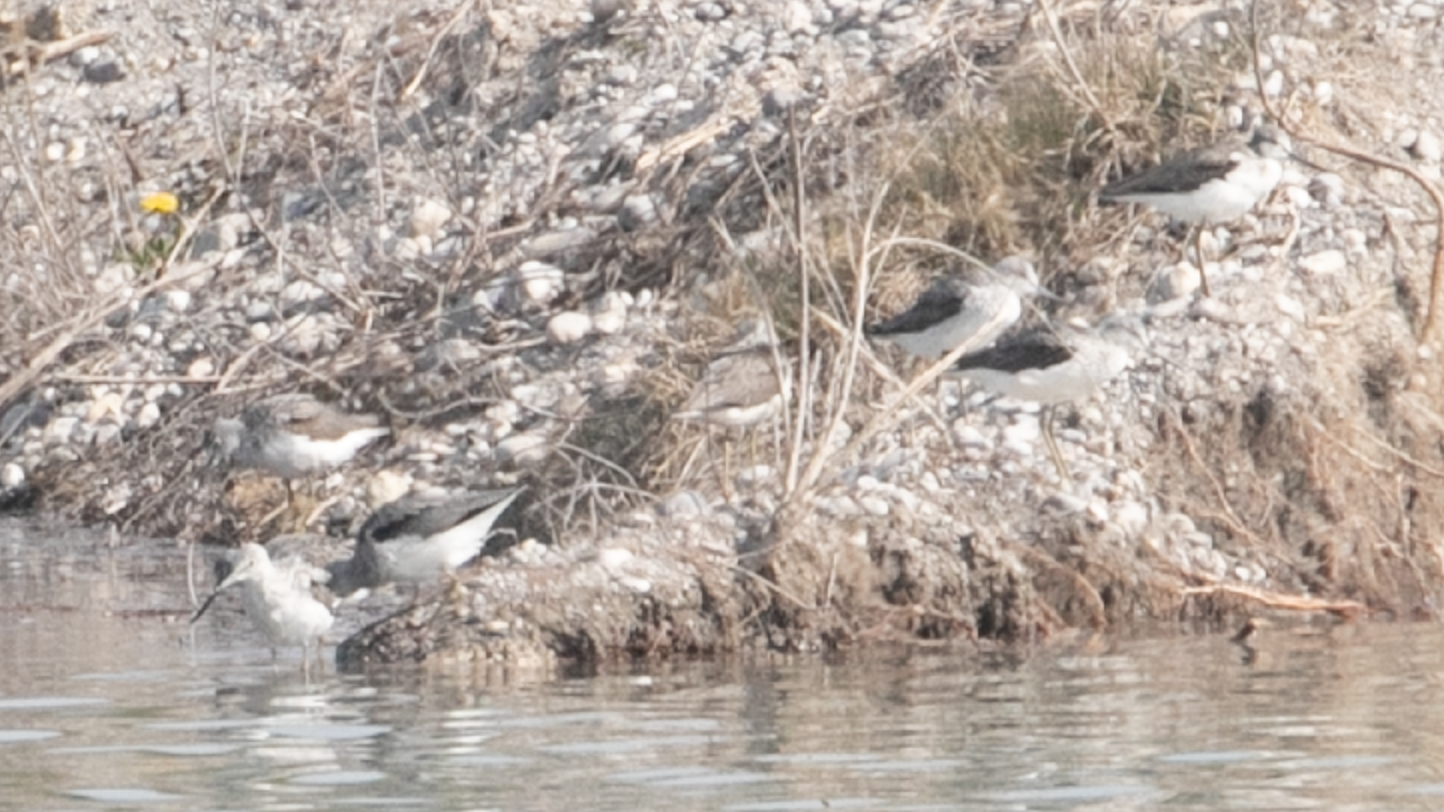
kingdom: Animalia
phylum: Chordata
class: Aves
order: Charadriiformes
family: Scolopacidae
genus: Tringa
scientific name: Tringa nebularia
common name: Common greenshank
